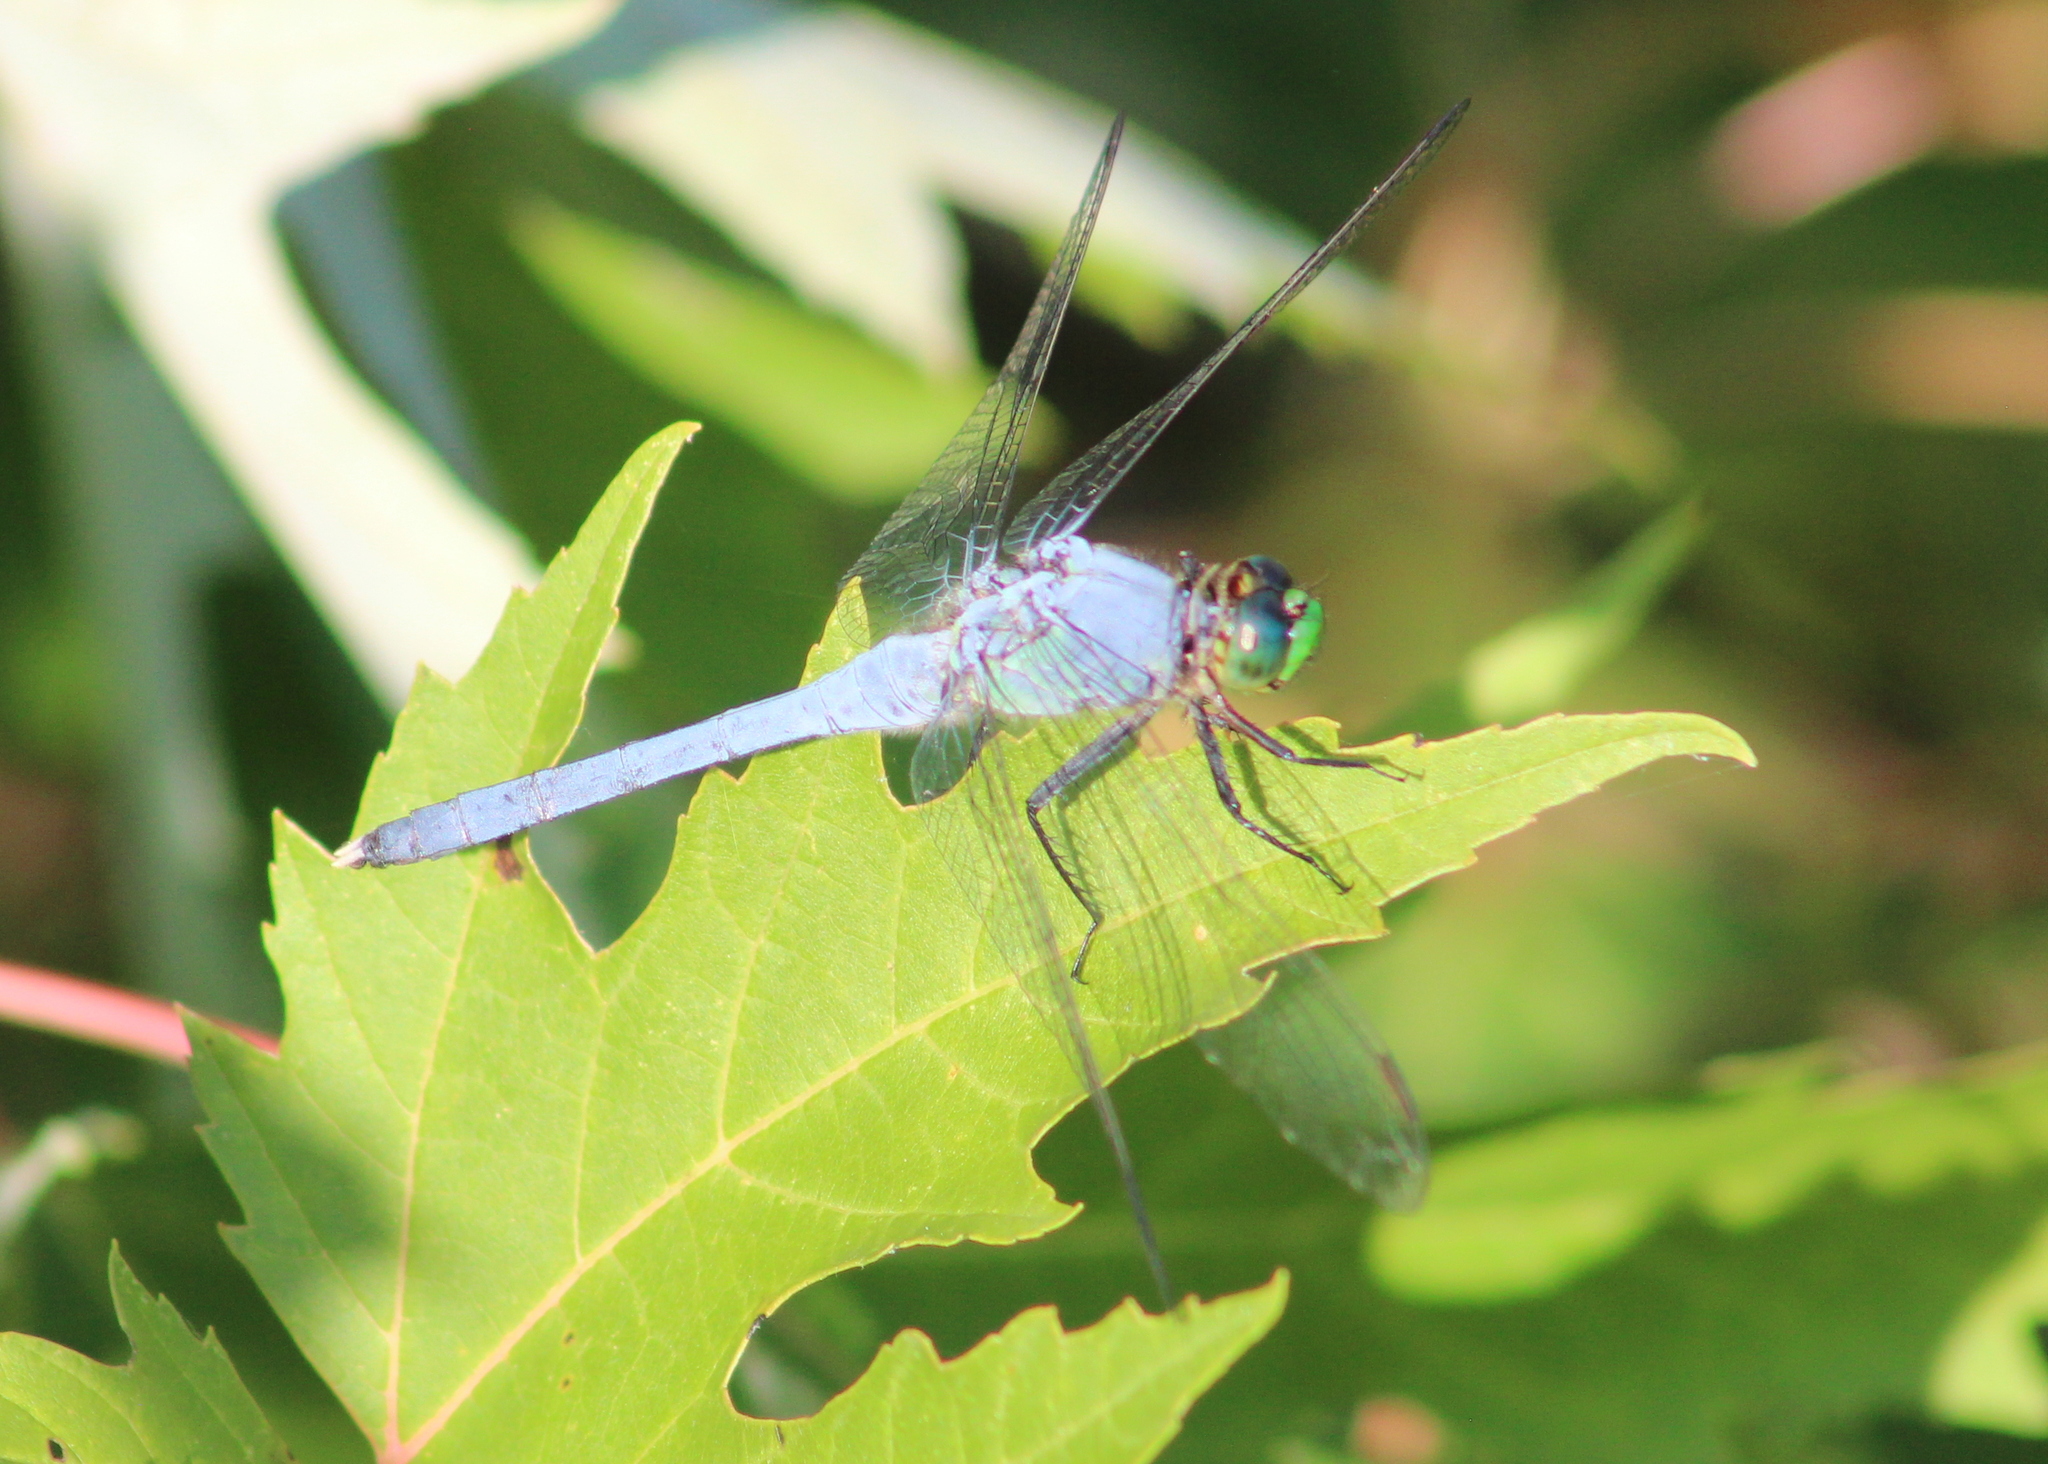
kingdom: Animalia
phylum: Arthropoda
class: Insecta
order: Odonata
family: Libellulidae
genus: Erythemis
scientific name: Erythemis simplicicollis
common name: Eastern pondhawk
